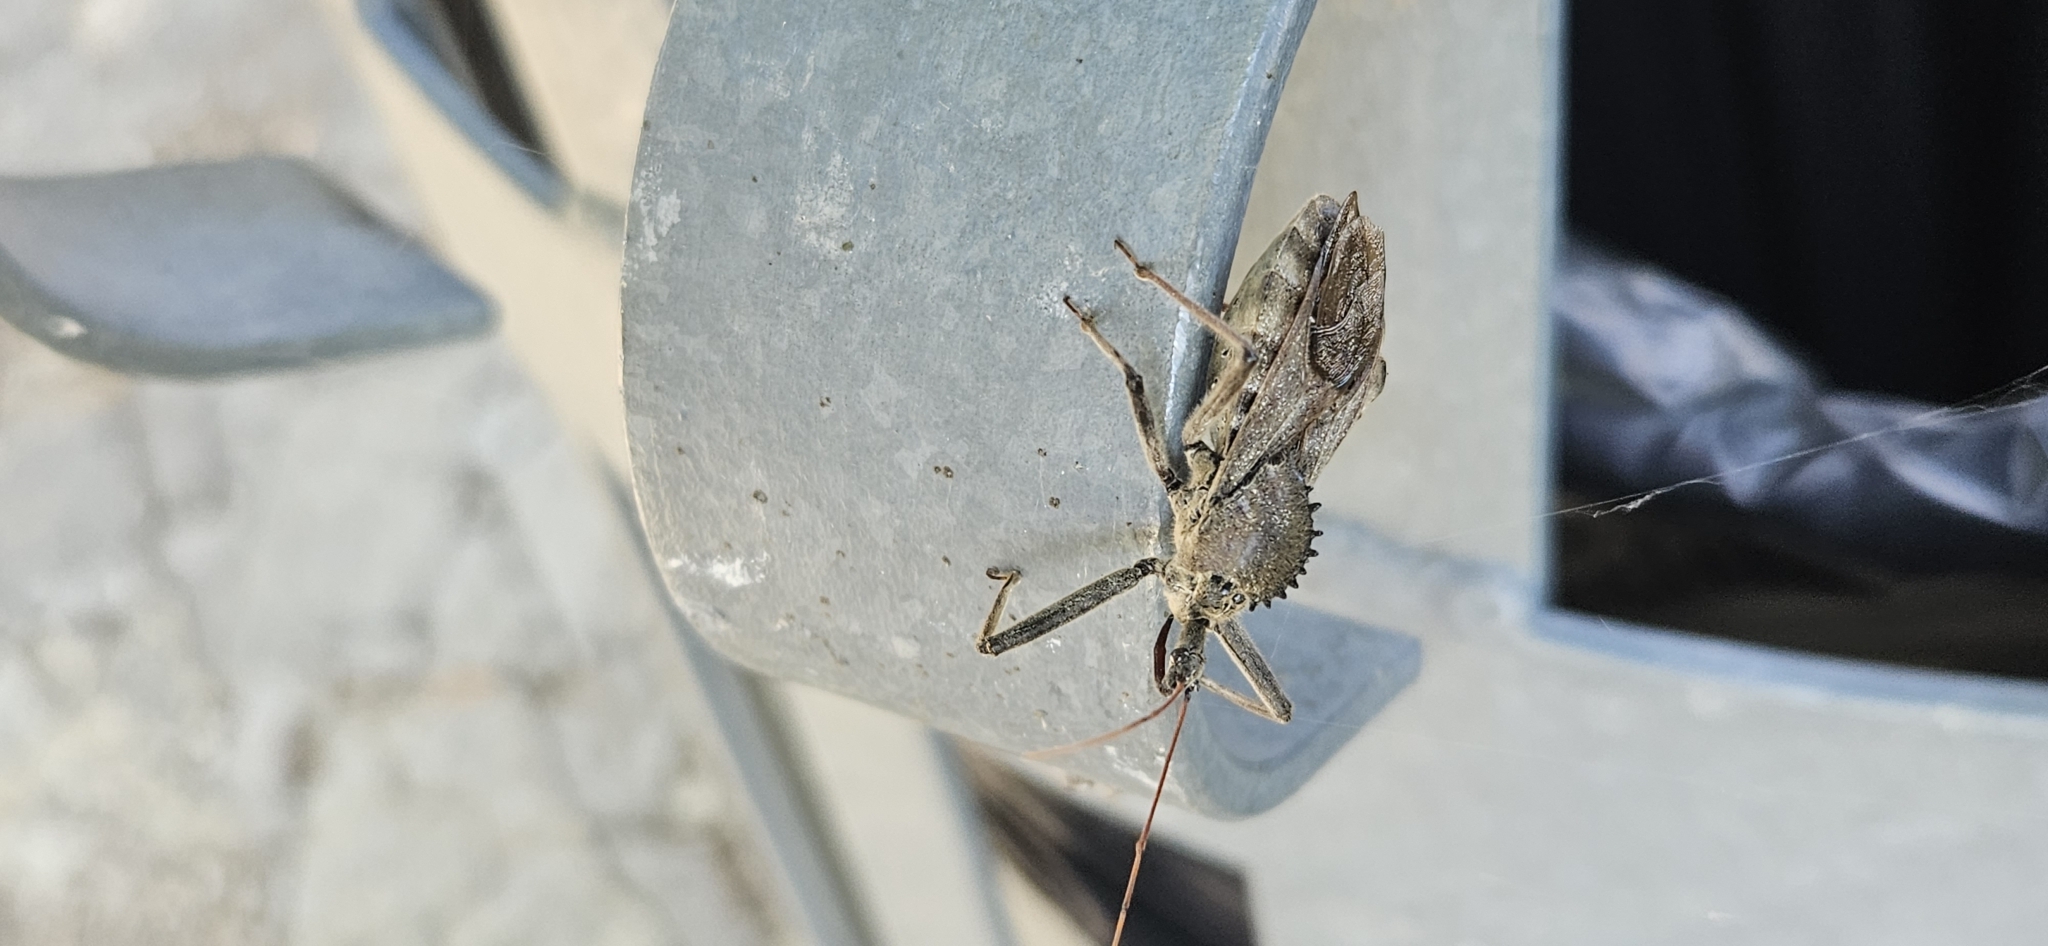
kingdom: Animalia
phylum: Arthropoda
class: Insecta
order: Hemiptera
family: Reduviidae
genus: Arilus
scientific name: Arilus cristatus
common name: North american wheel bug
